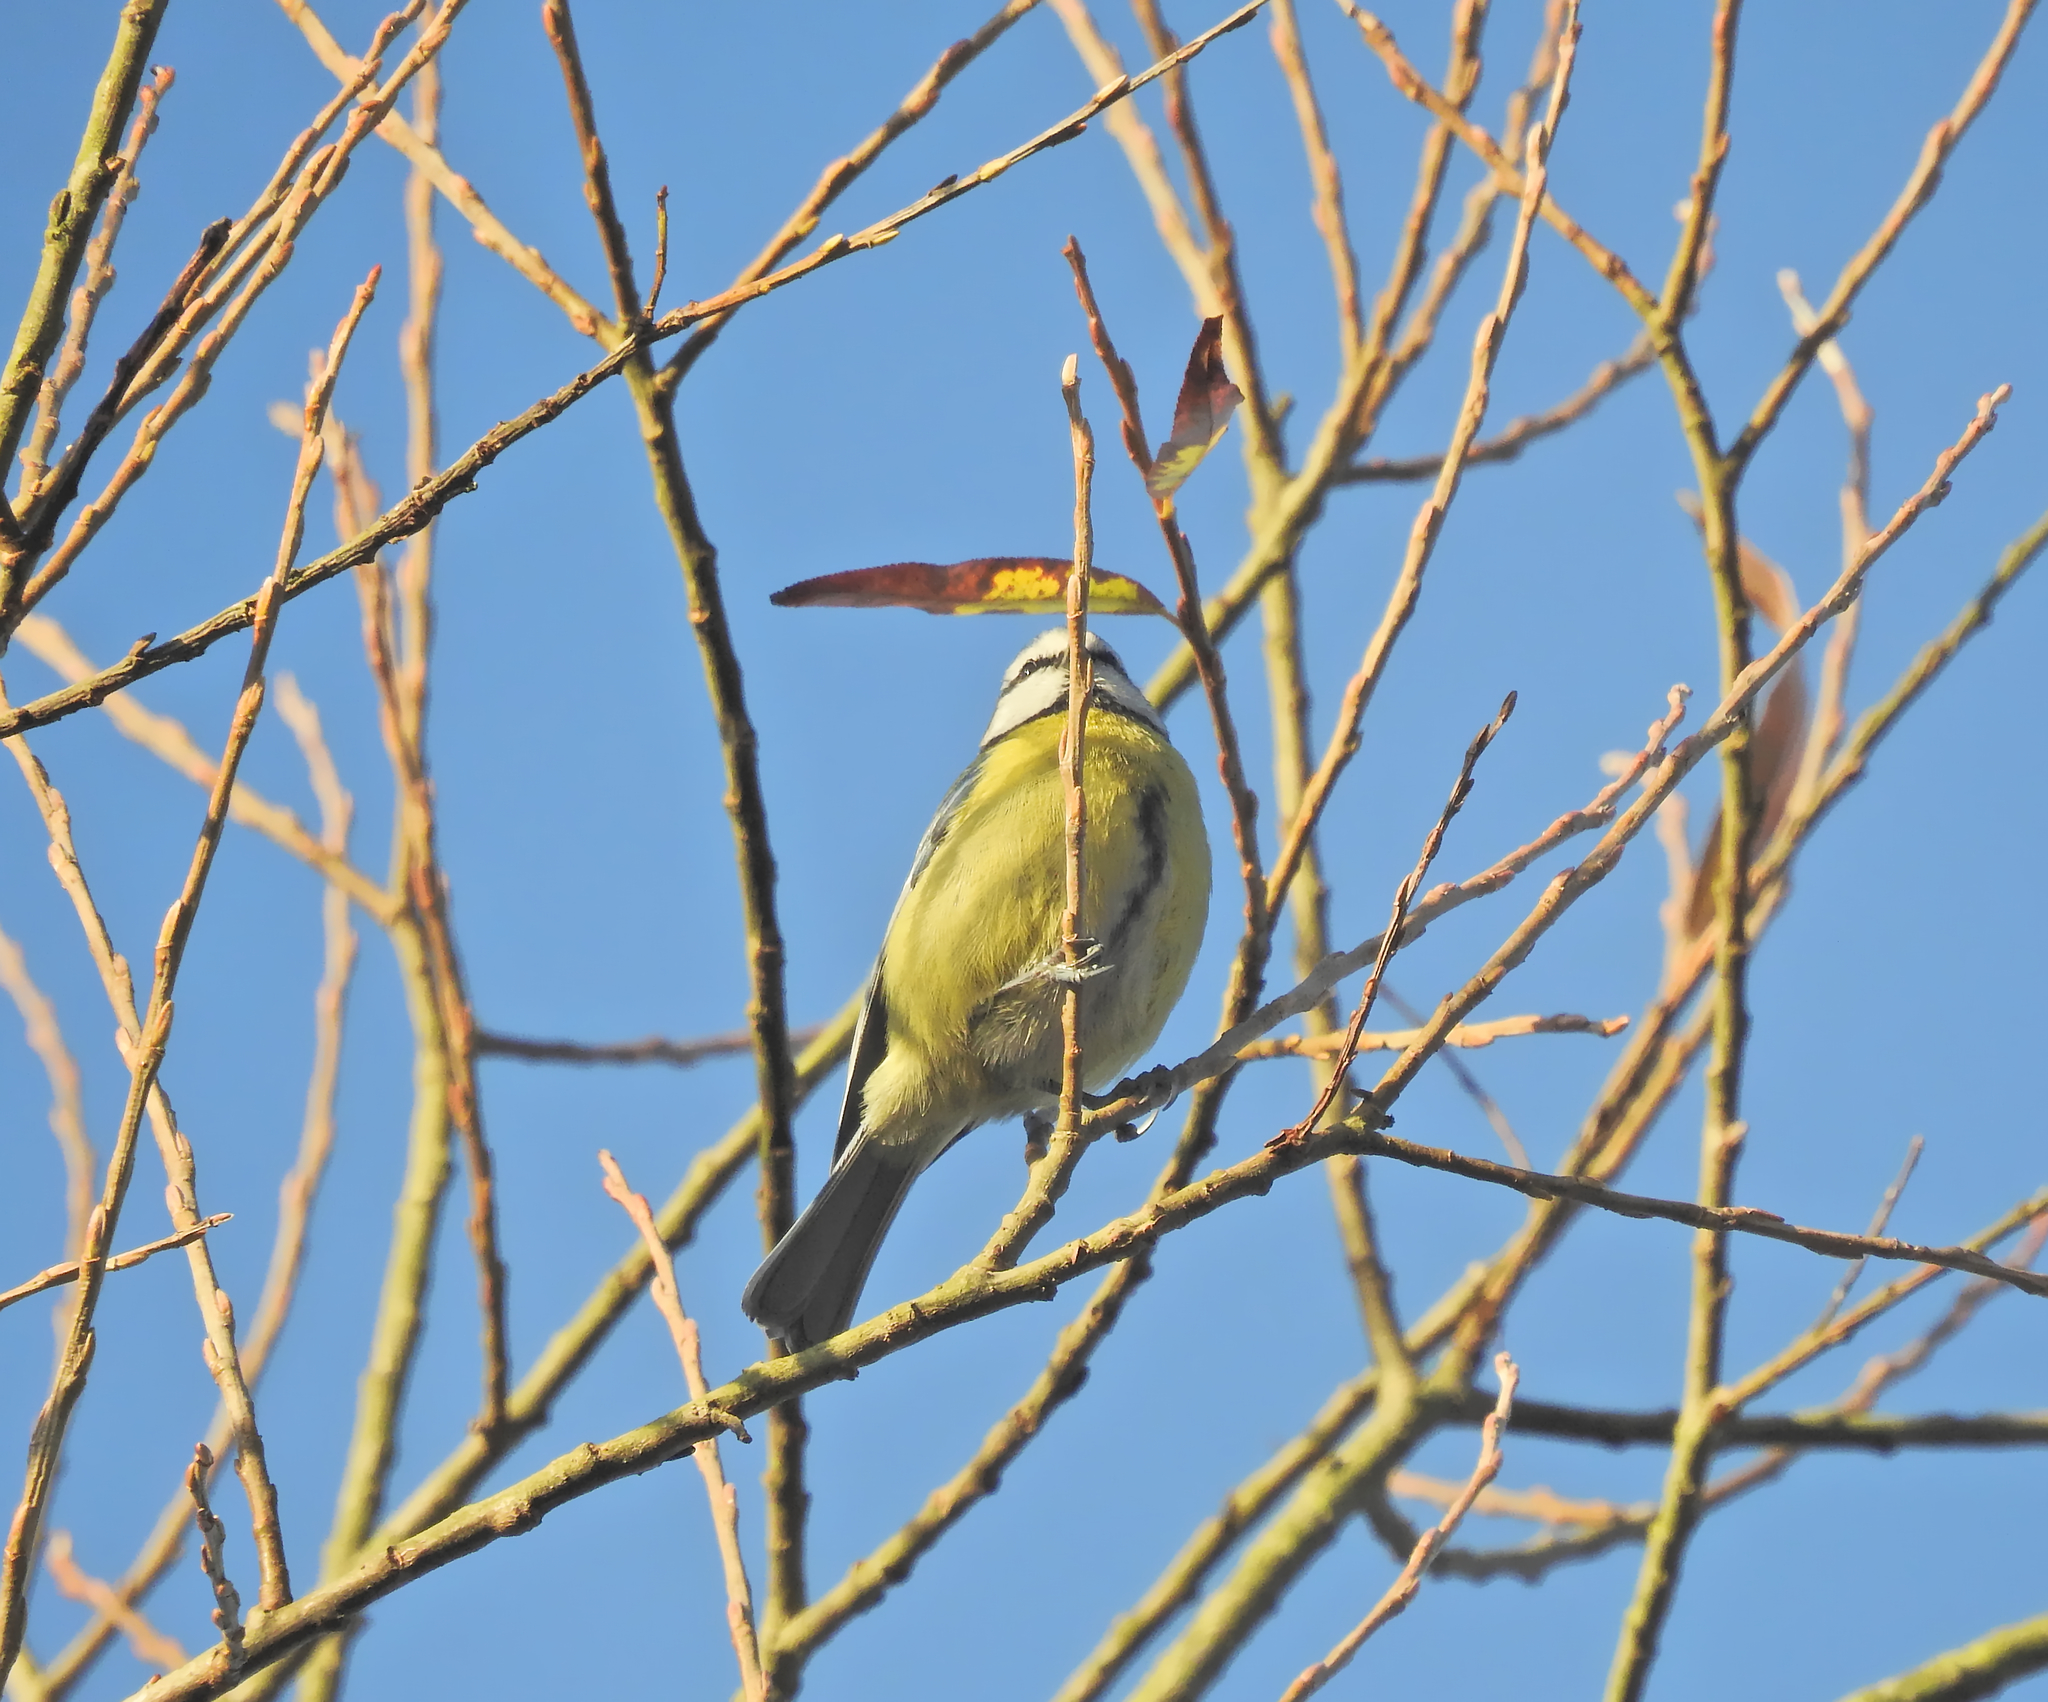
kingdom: Animalia
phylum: Chordata
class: Aves
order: Passeriformes
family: Paridae
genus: Cyanistes
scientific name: Cyanistes caeruleus
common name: Eurasian blue tit
